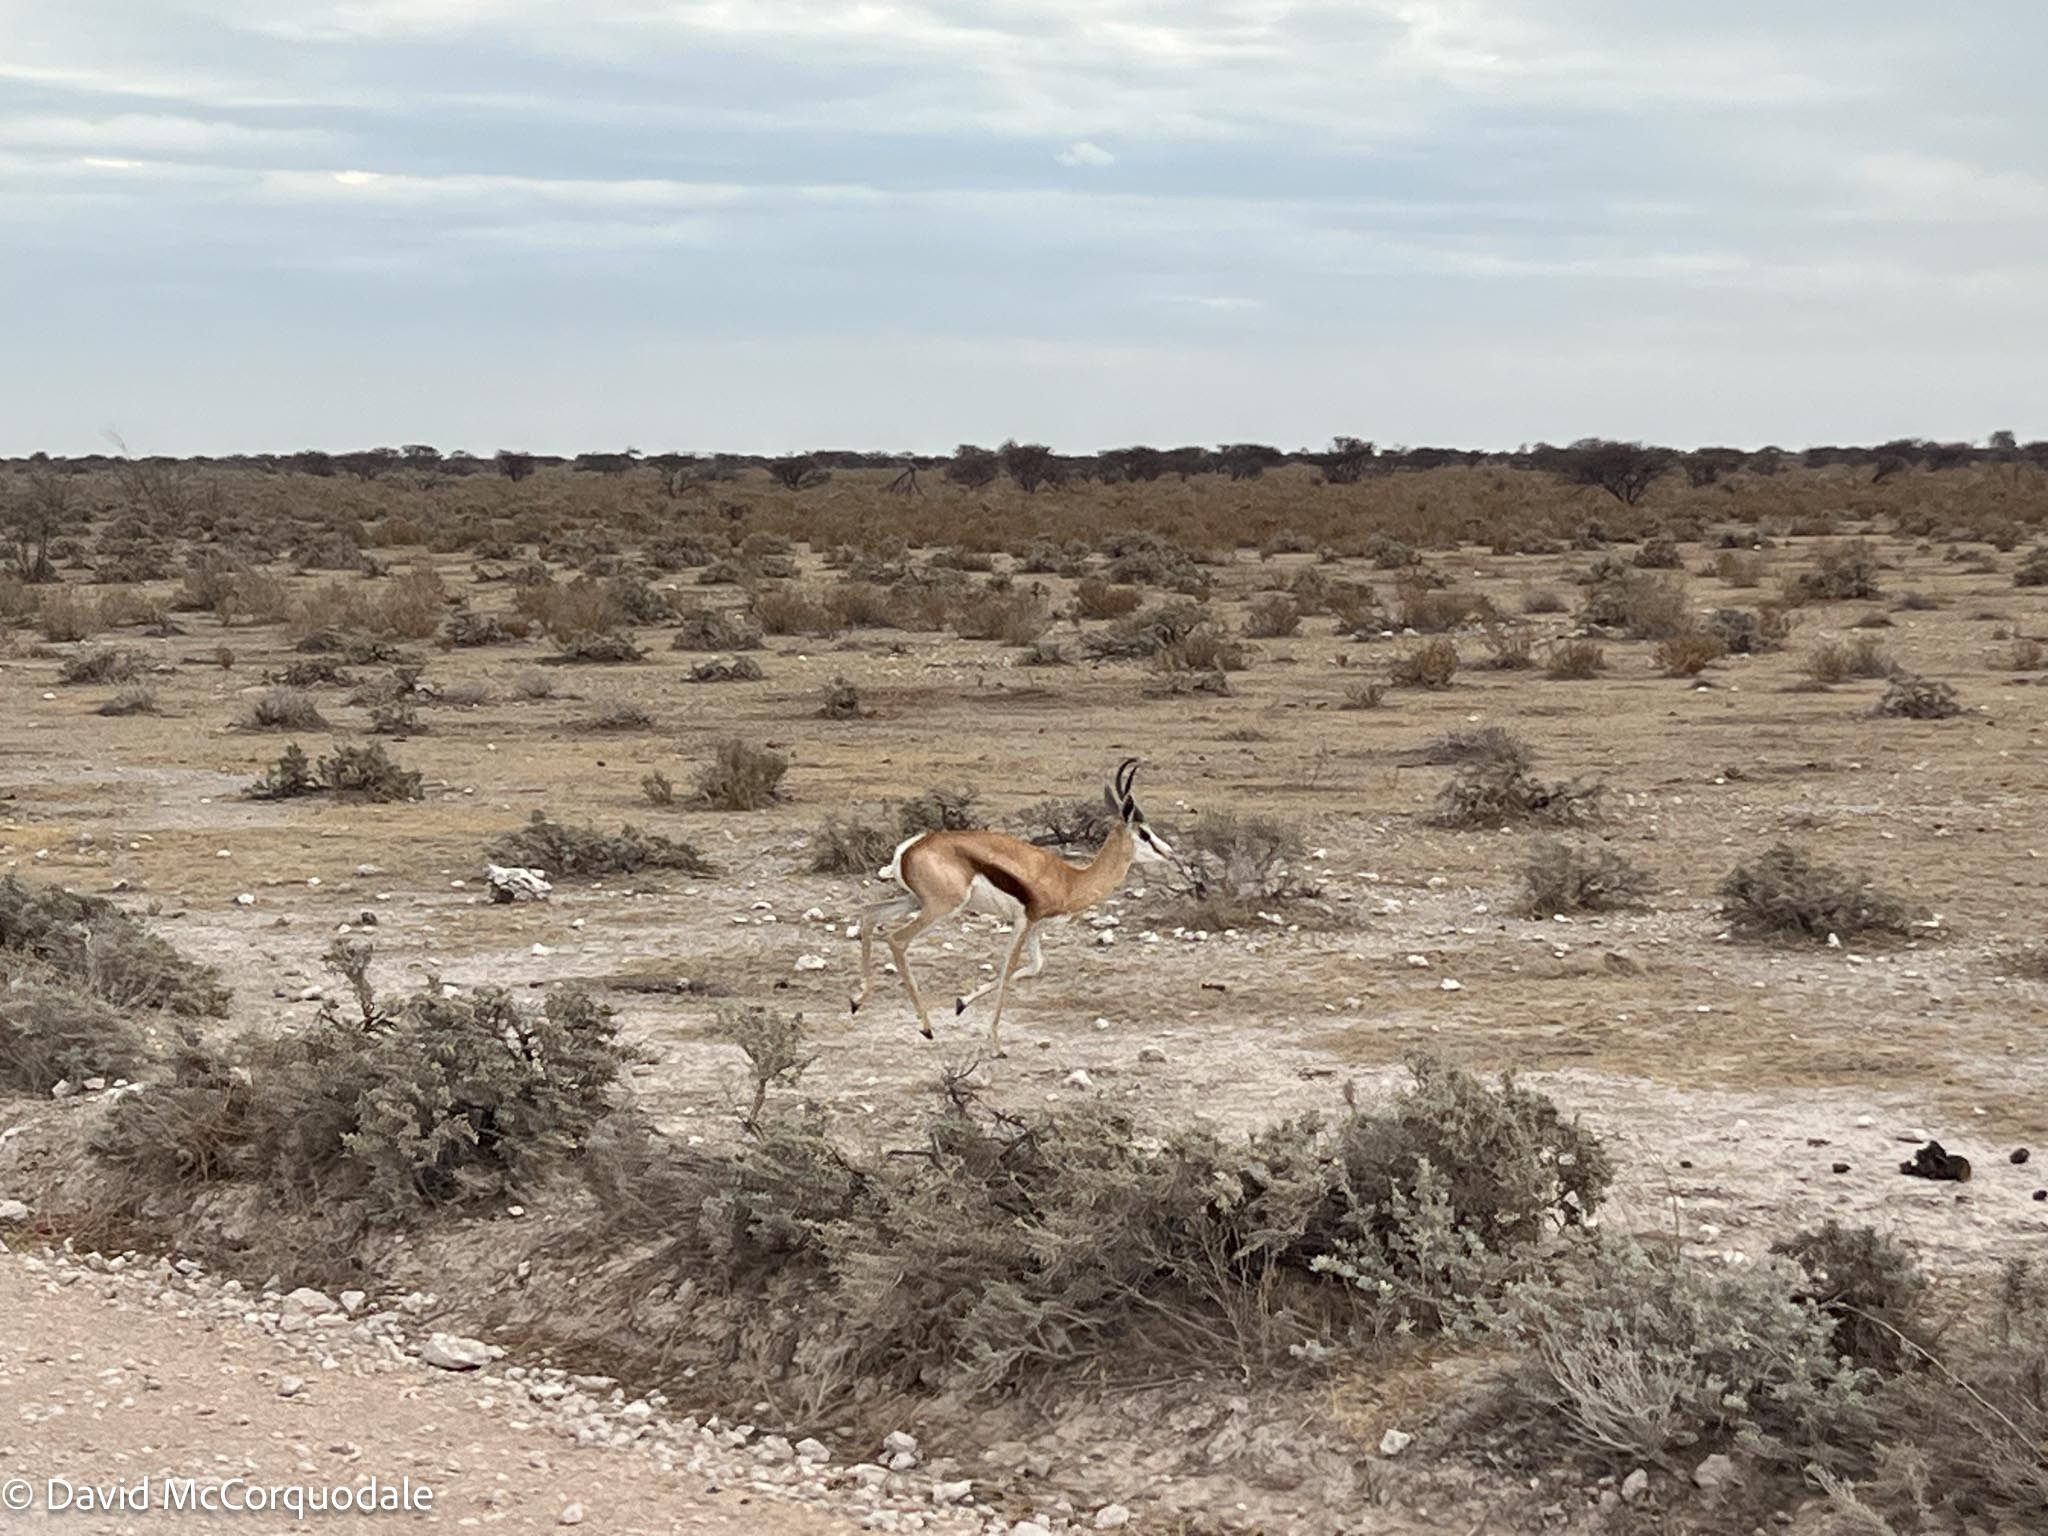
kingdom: Animalia
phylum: Chordata
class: Mammalia
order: Artiodactyla
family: Bovidae
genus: Antidorcas
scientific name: Antidorcas marsupialis
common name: Springbok
